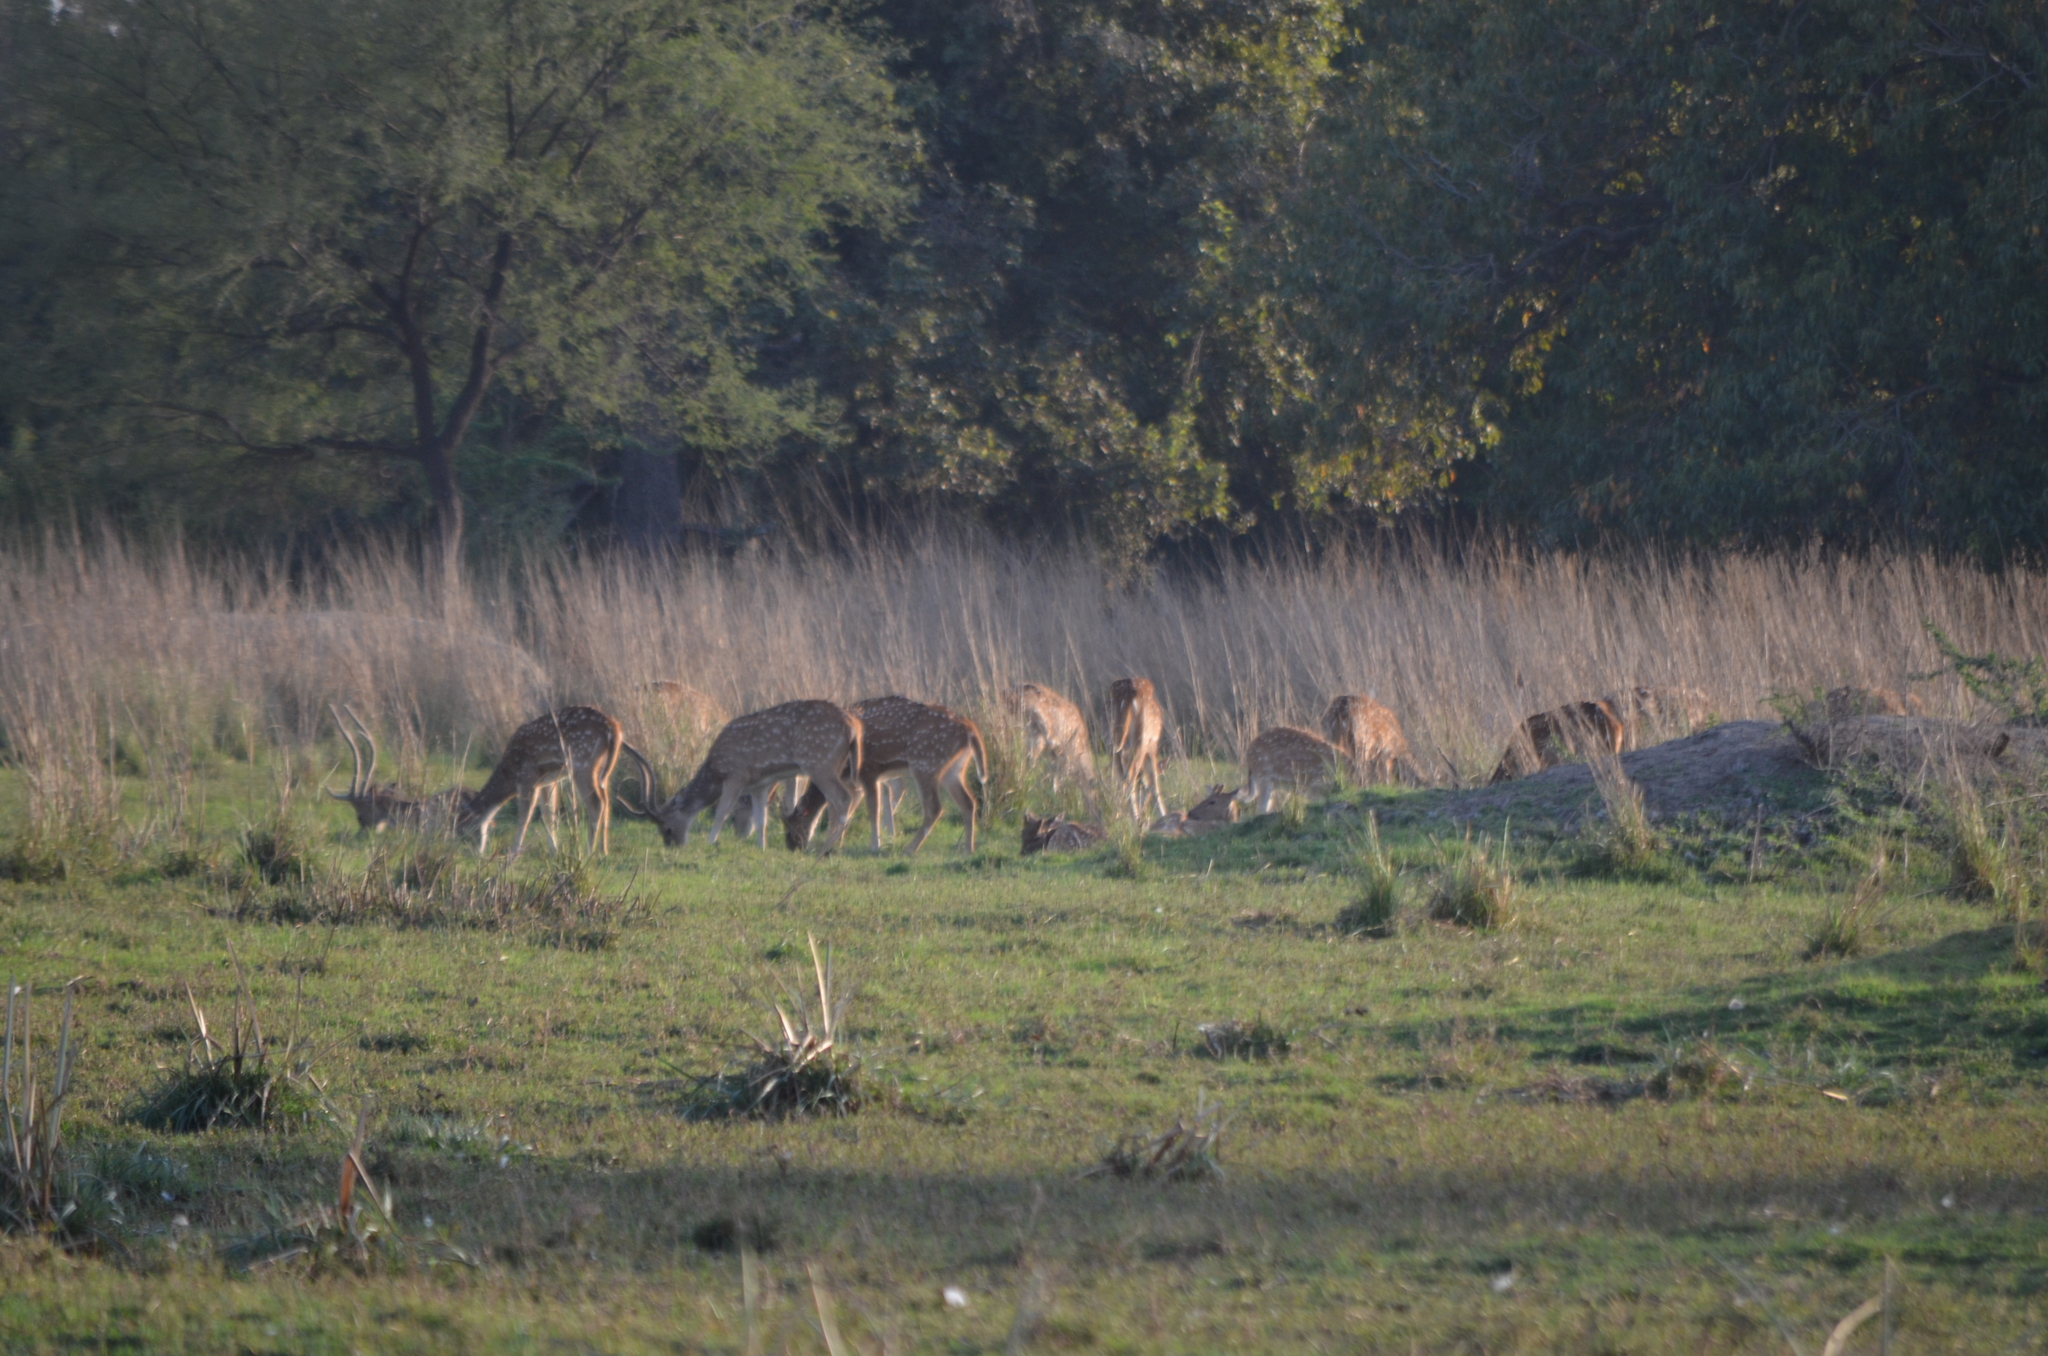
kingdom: Animalia
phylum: Chordata
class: Mammalia
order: Artiodactyla
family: Cervidae
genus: Axis
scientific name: Axis axis
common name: Chital
